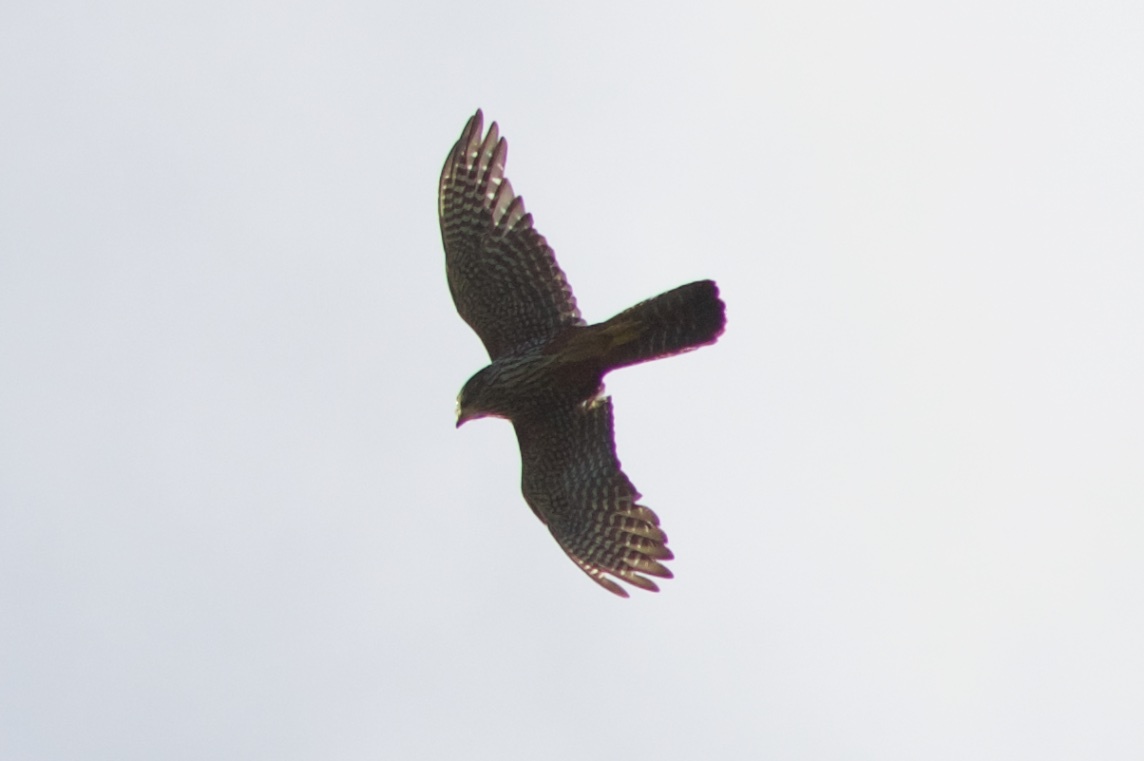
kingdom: Animalia
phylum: Chordata
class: Aves
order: Falconiformes
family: Falconidae
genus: Falco
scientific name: Falco novaeseelandiae
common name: New zealand falcon
